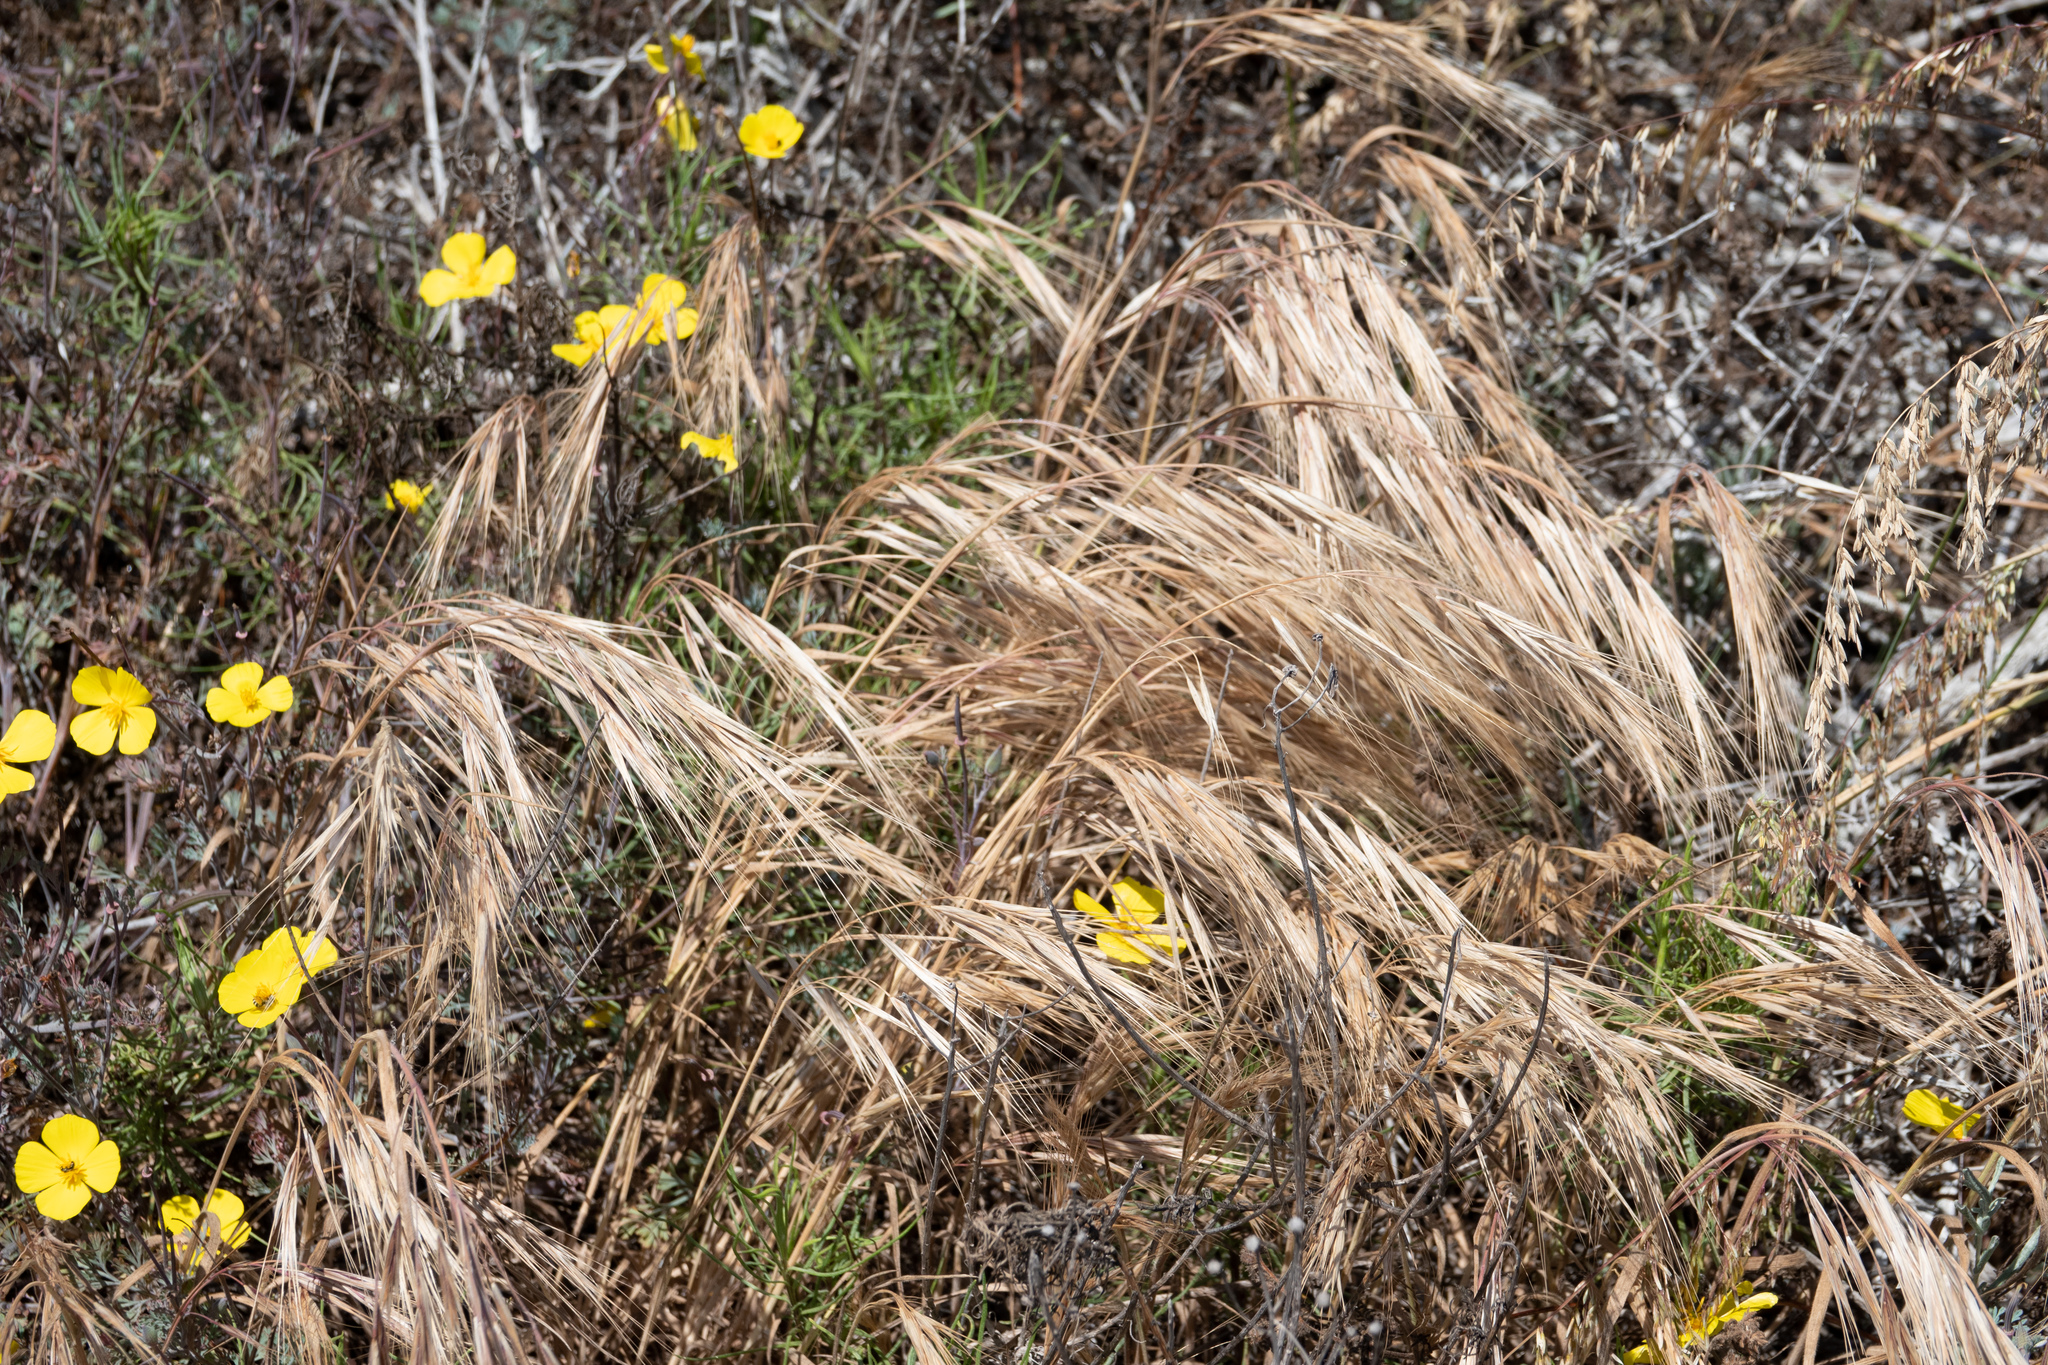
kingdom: Plantae
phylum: Tracheophyta
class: Liliopsida
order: Poales
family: Poaceae
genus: Bromus
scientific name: Bromus diandrus
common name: Ripgut brome
